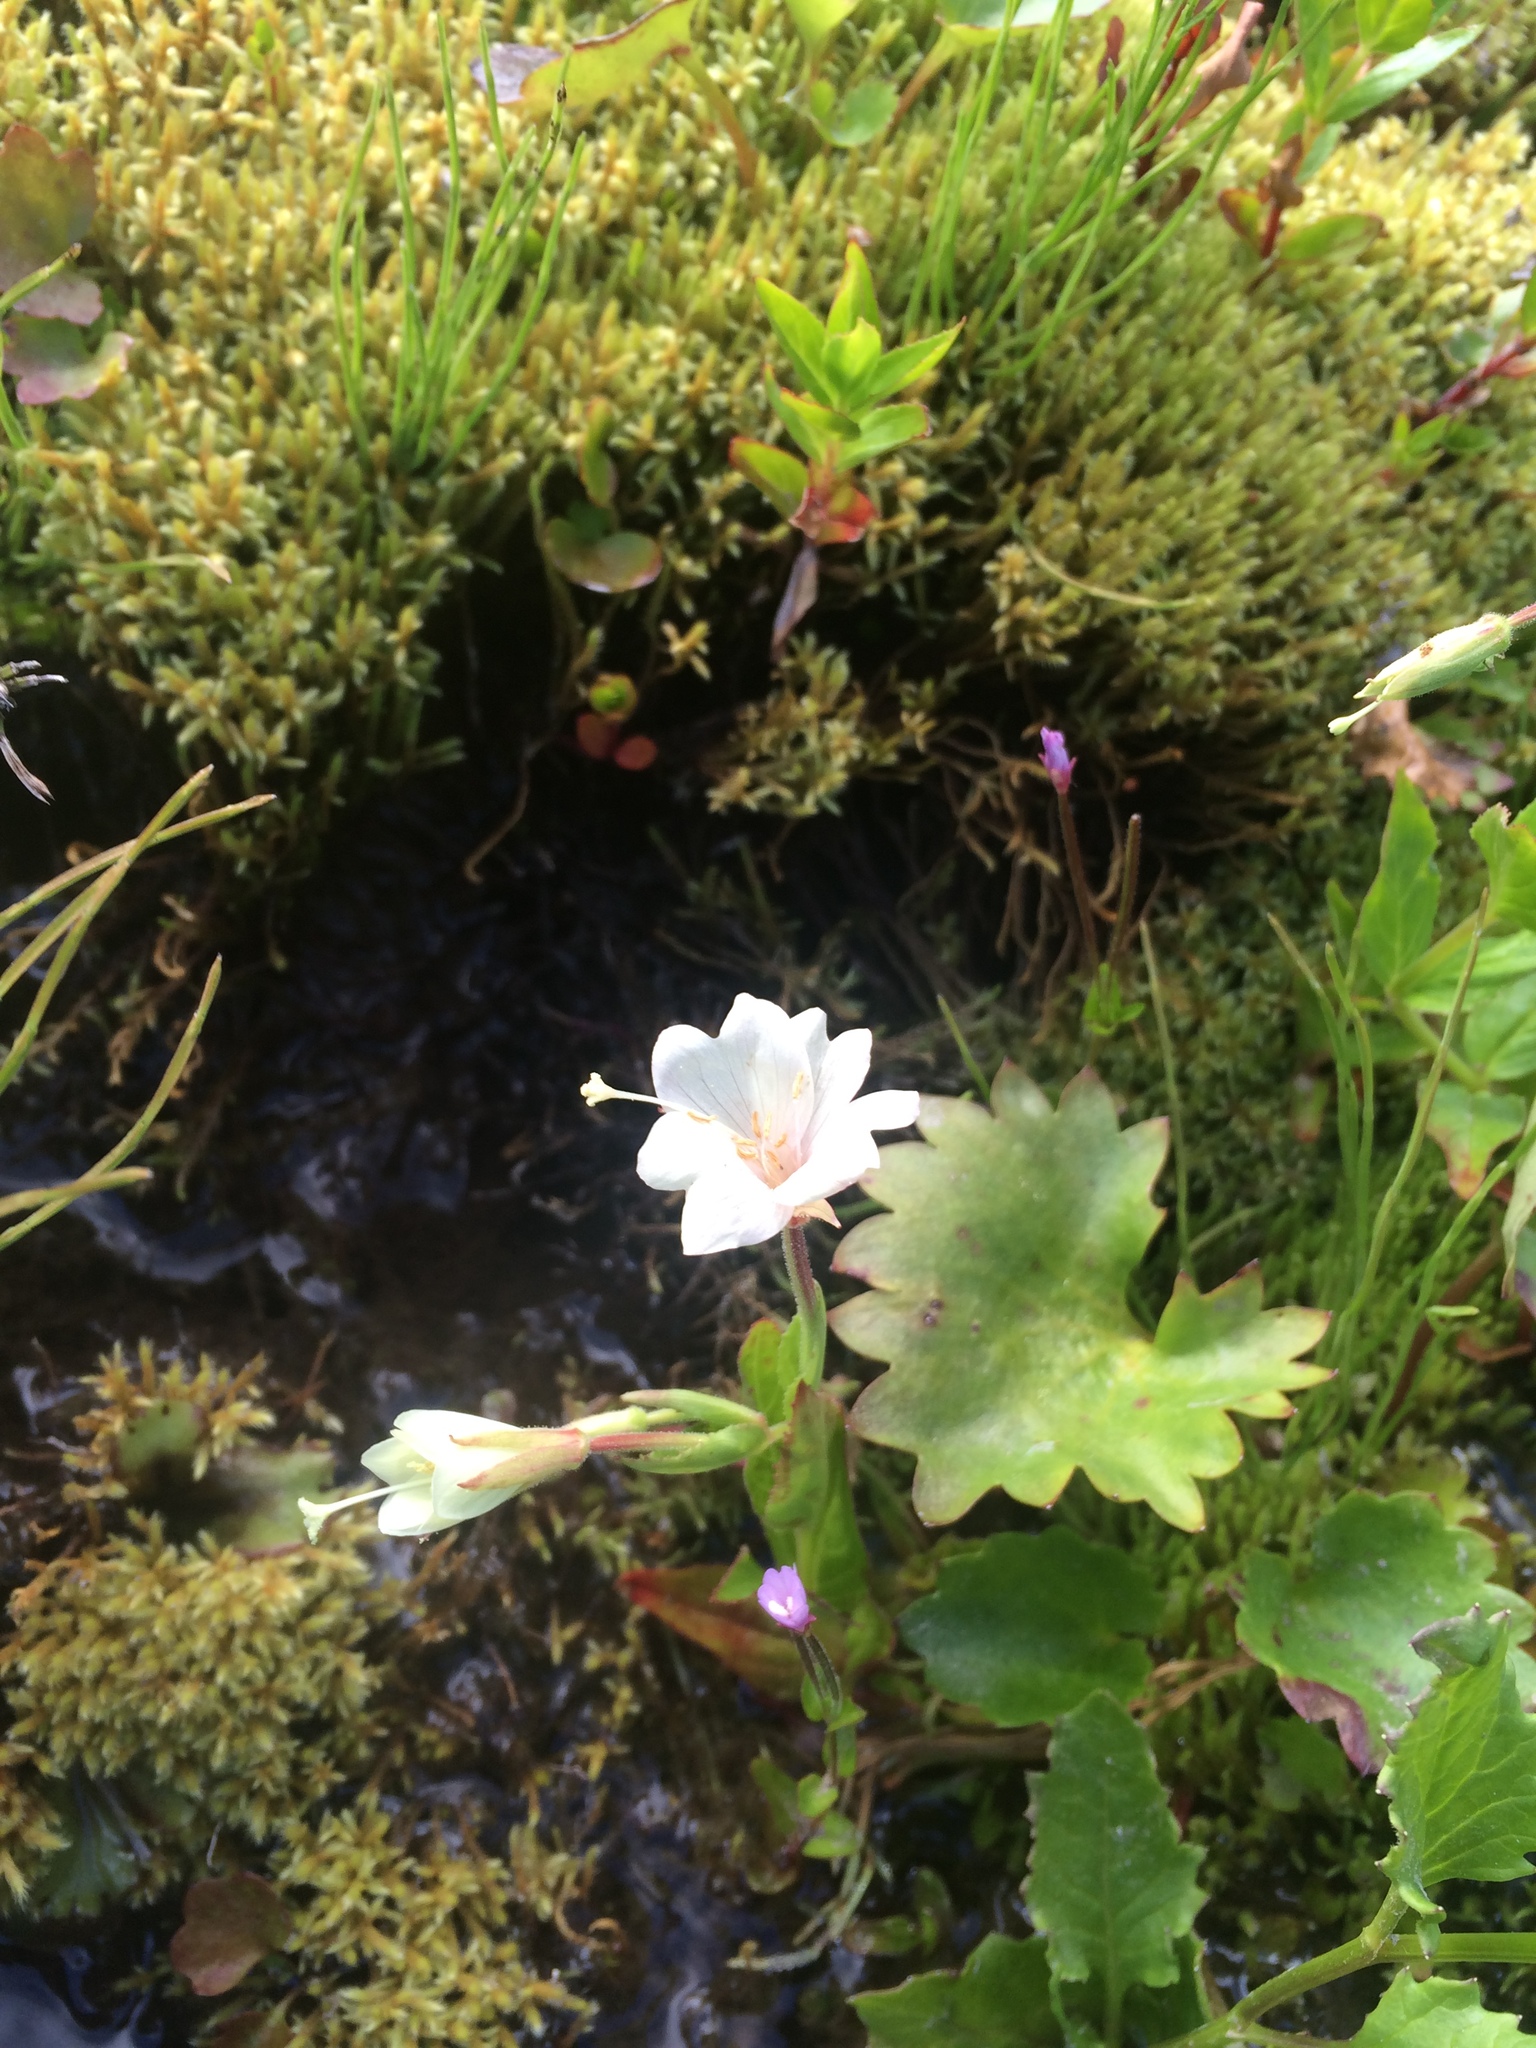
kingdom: Plantae
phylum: Tracheophyta
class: Magnoliopsida
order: Myrtales
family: Onagraceae
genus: Epilobium
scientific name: Epilobium luteum
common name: Yellow willowherb
